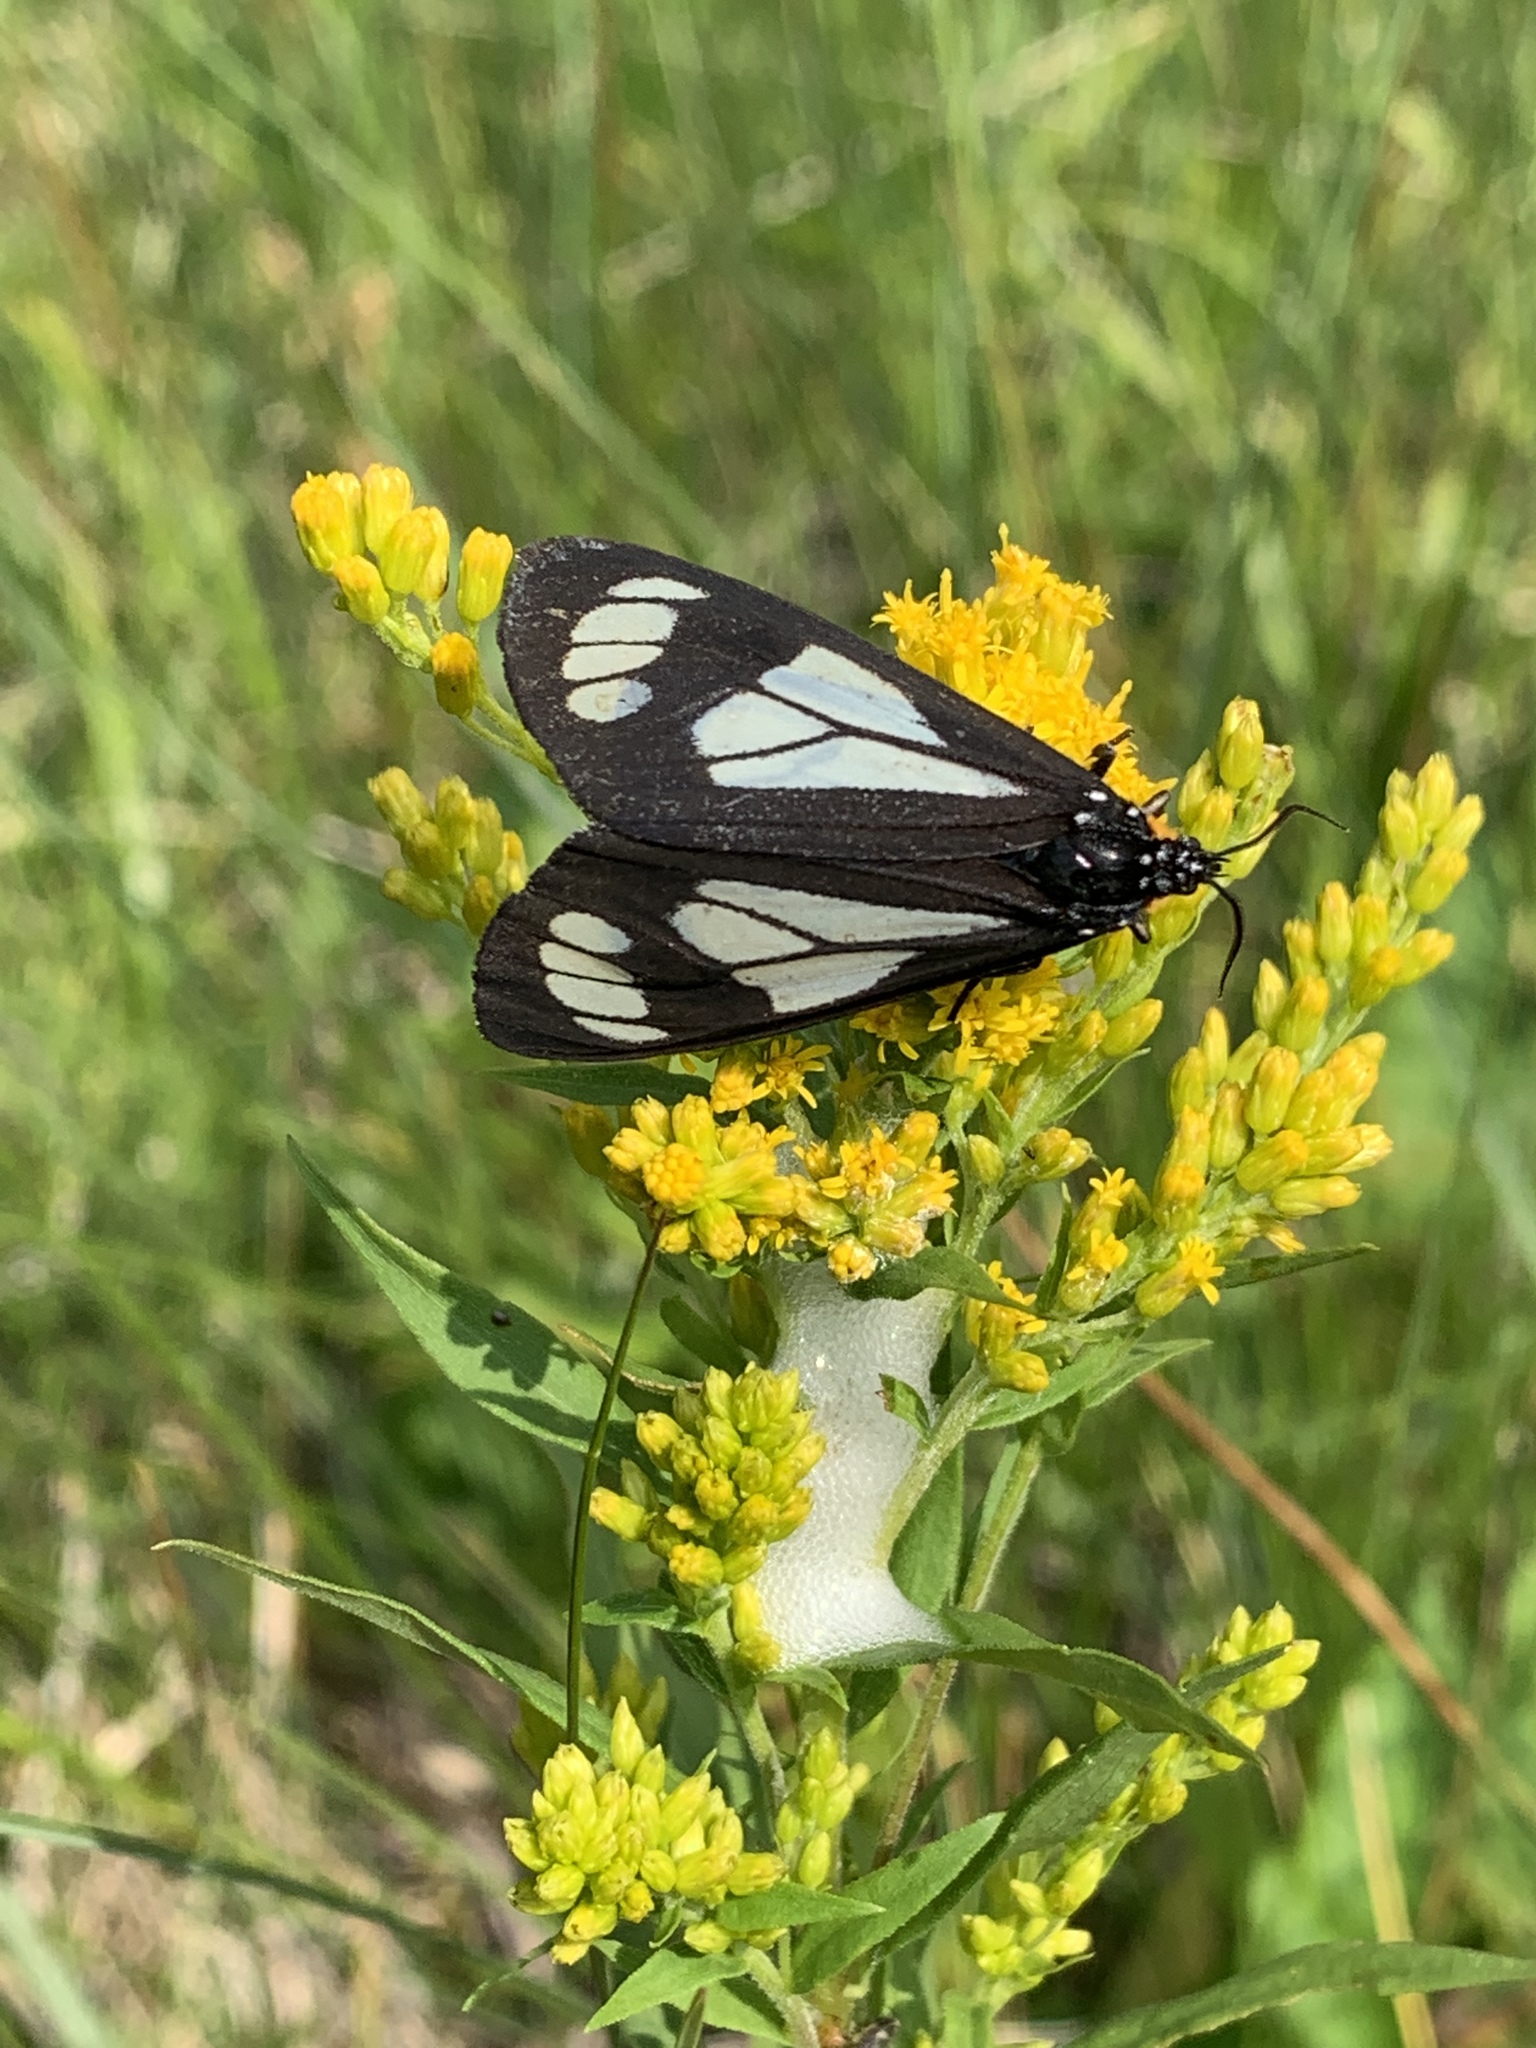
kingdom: Animalia
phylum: Arthropoda
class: Insecta
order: Lepidoptera
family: Erebidae
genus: Gnophaela
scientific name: Gnophaela vermiculata
